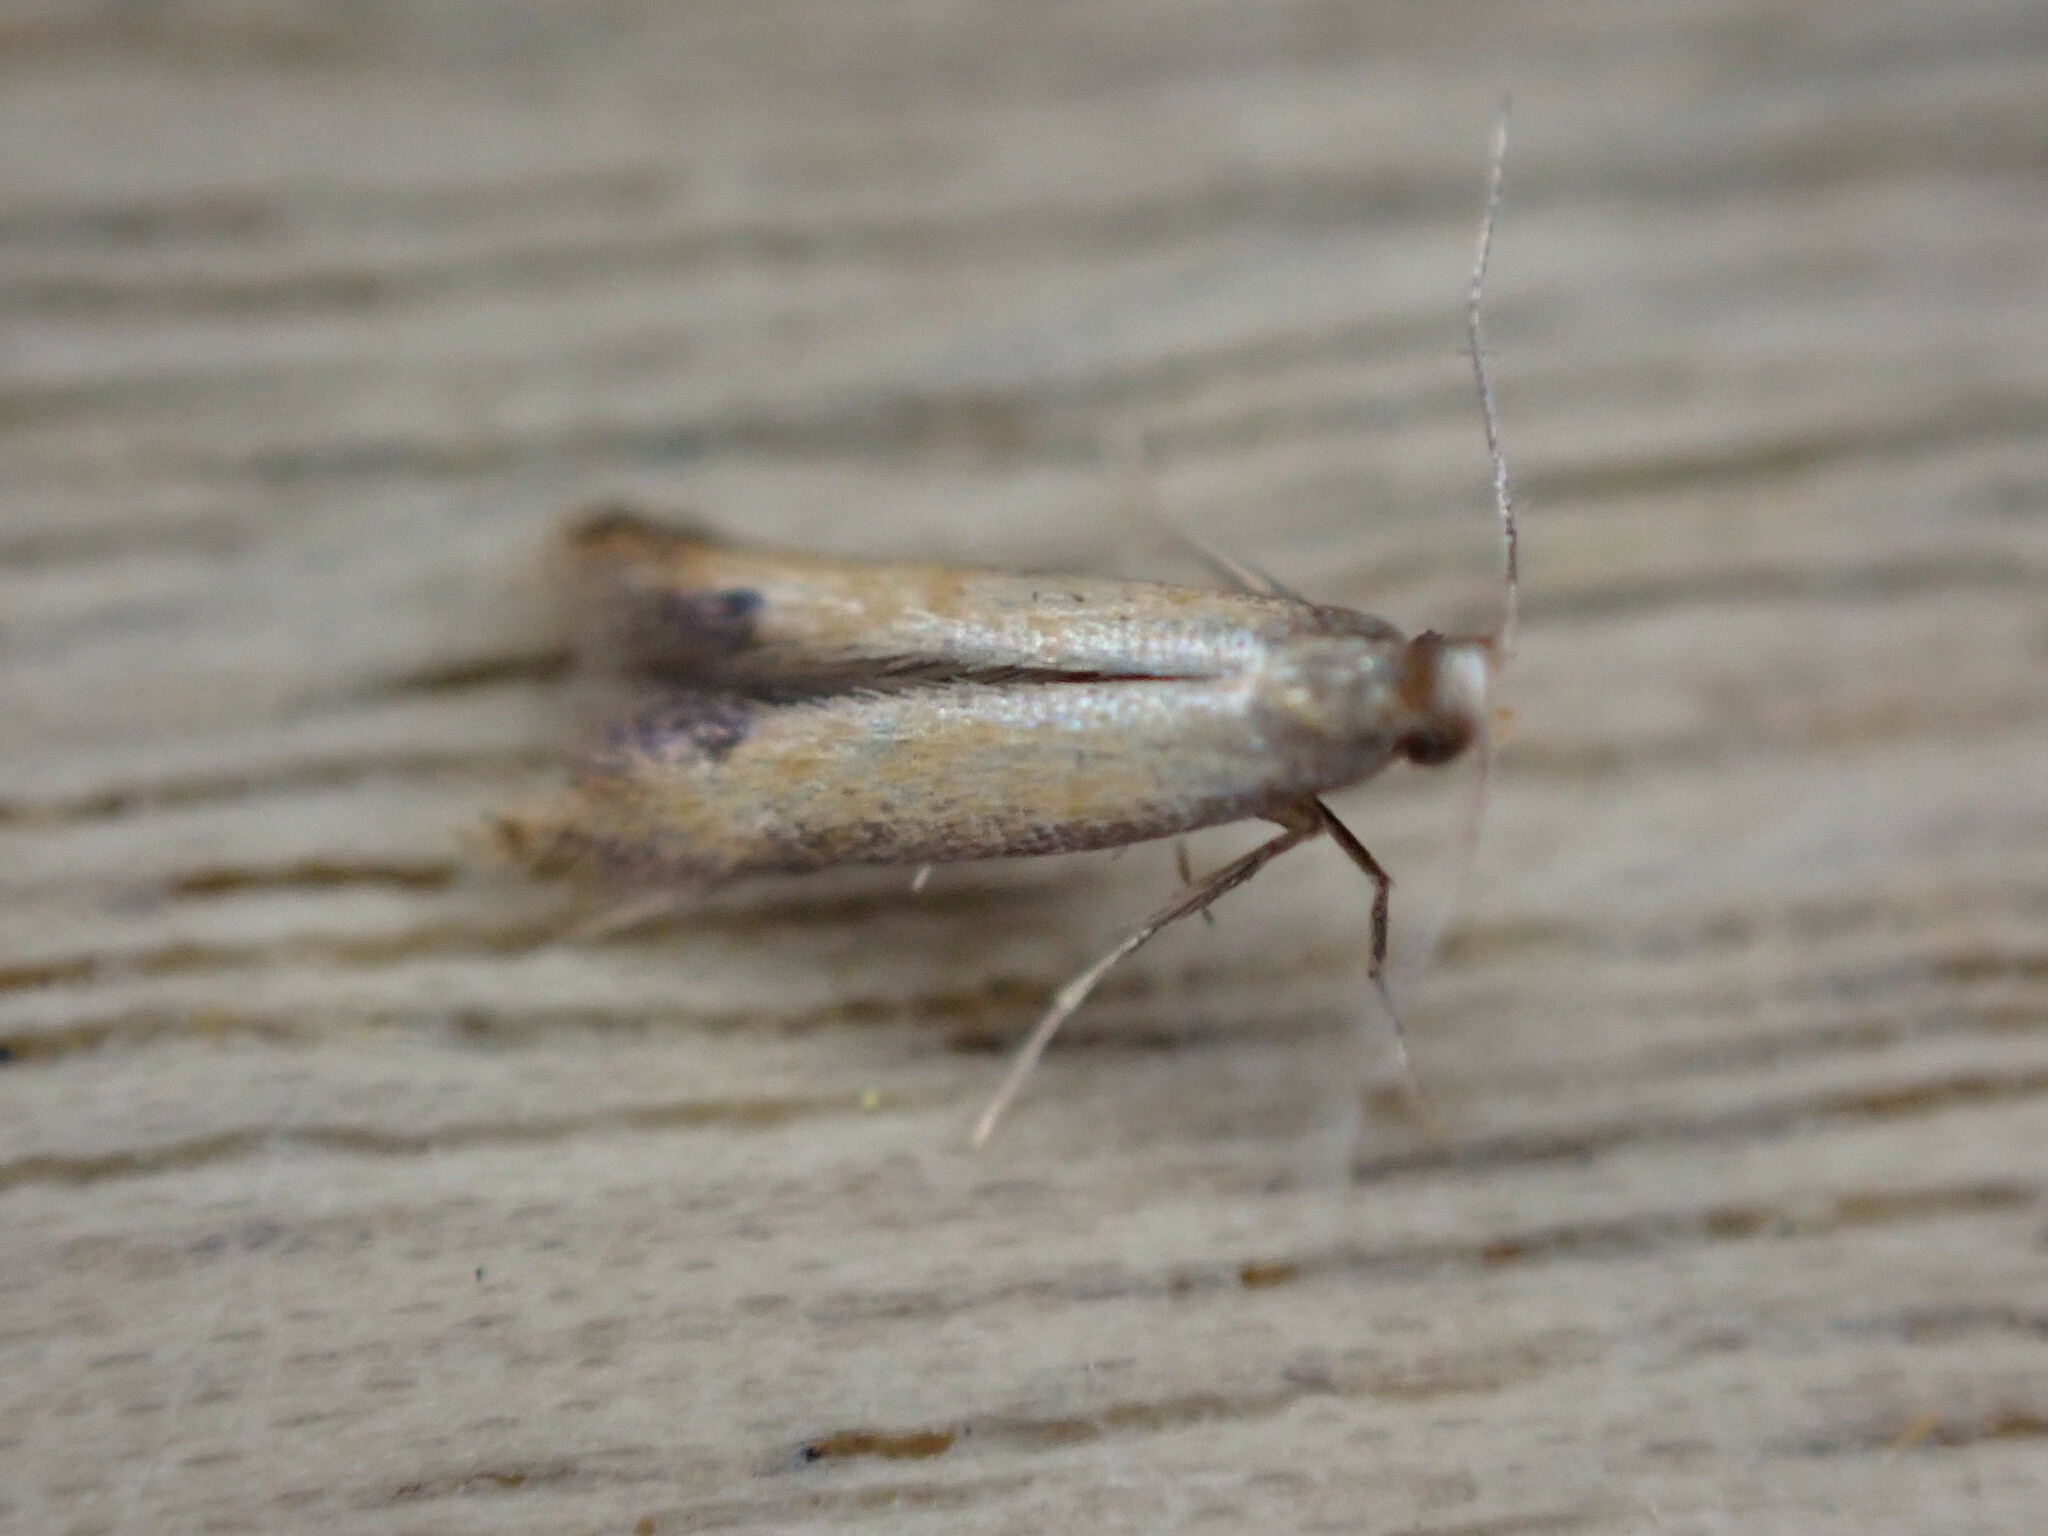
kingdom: Animalia
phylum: Arthropoda
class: Insecta
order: Lepidoptera
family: Tischeriidae
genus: Coptotriche
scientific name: Coptotriche marginea
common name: Bordered carl
